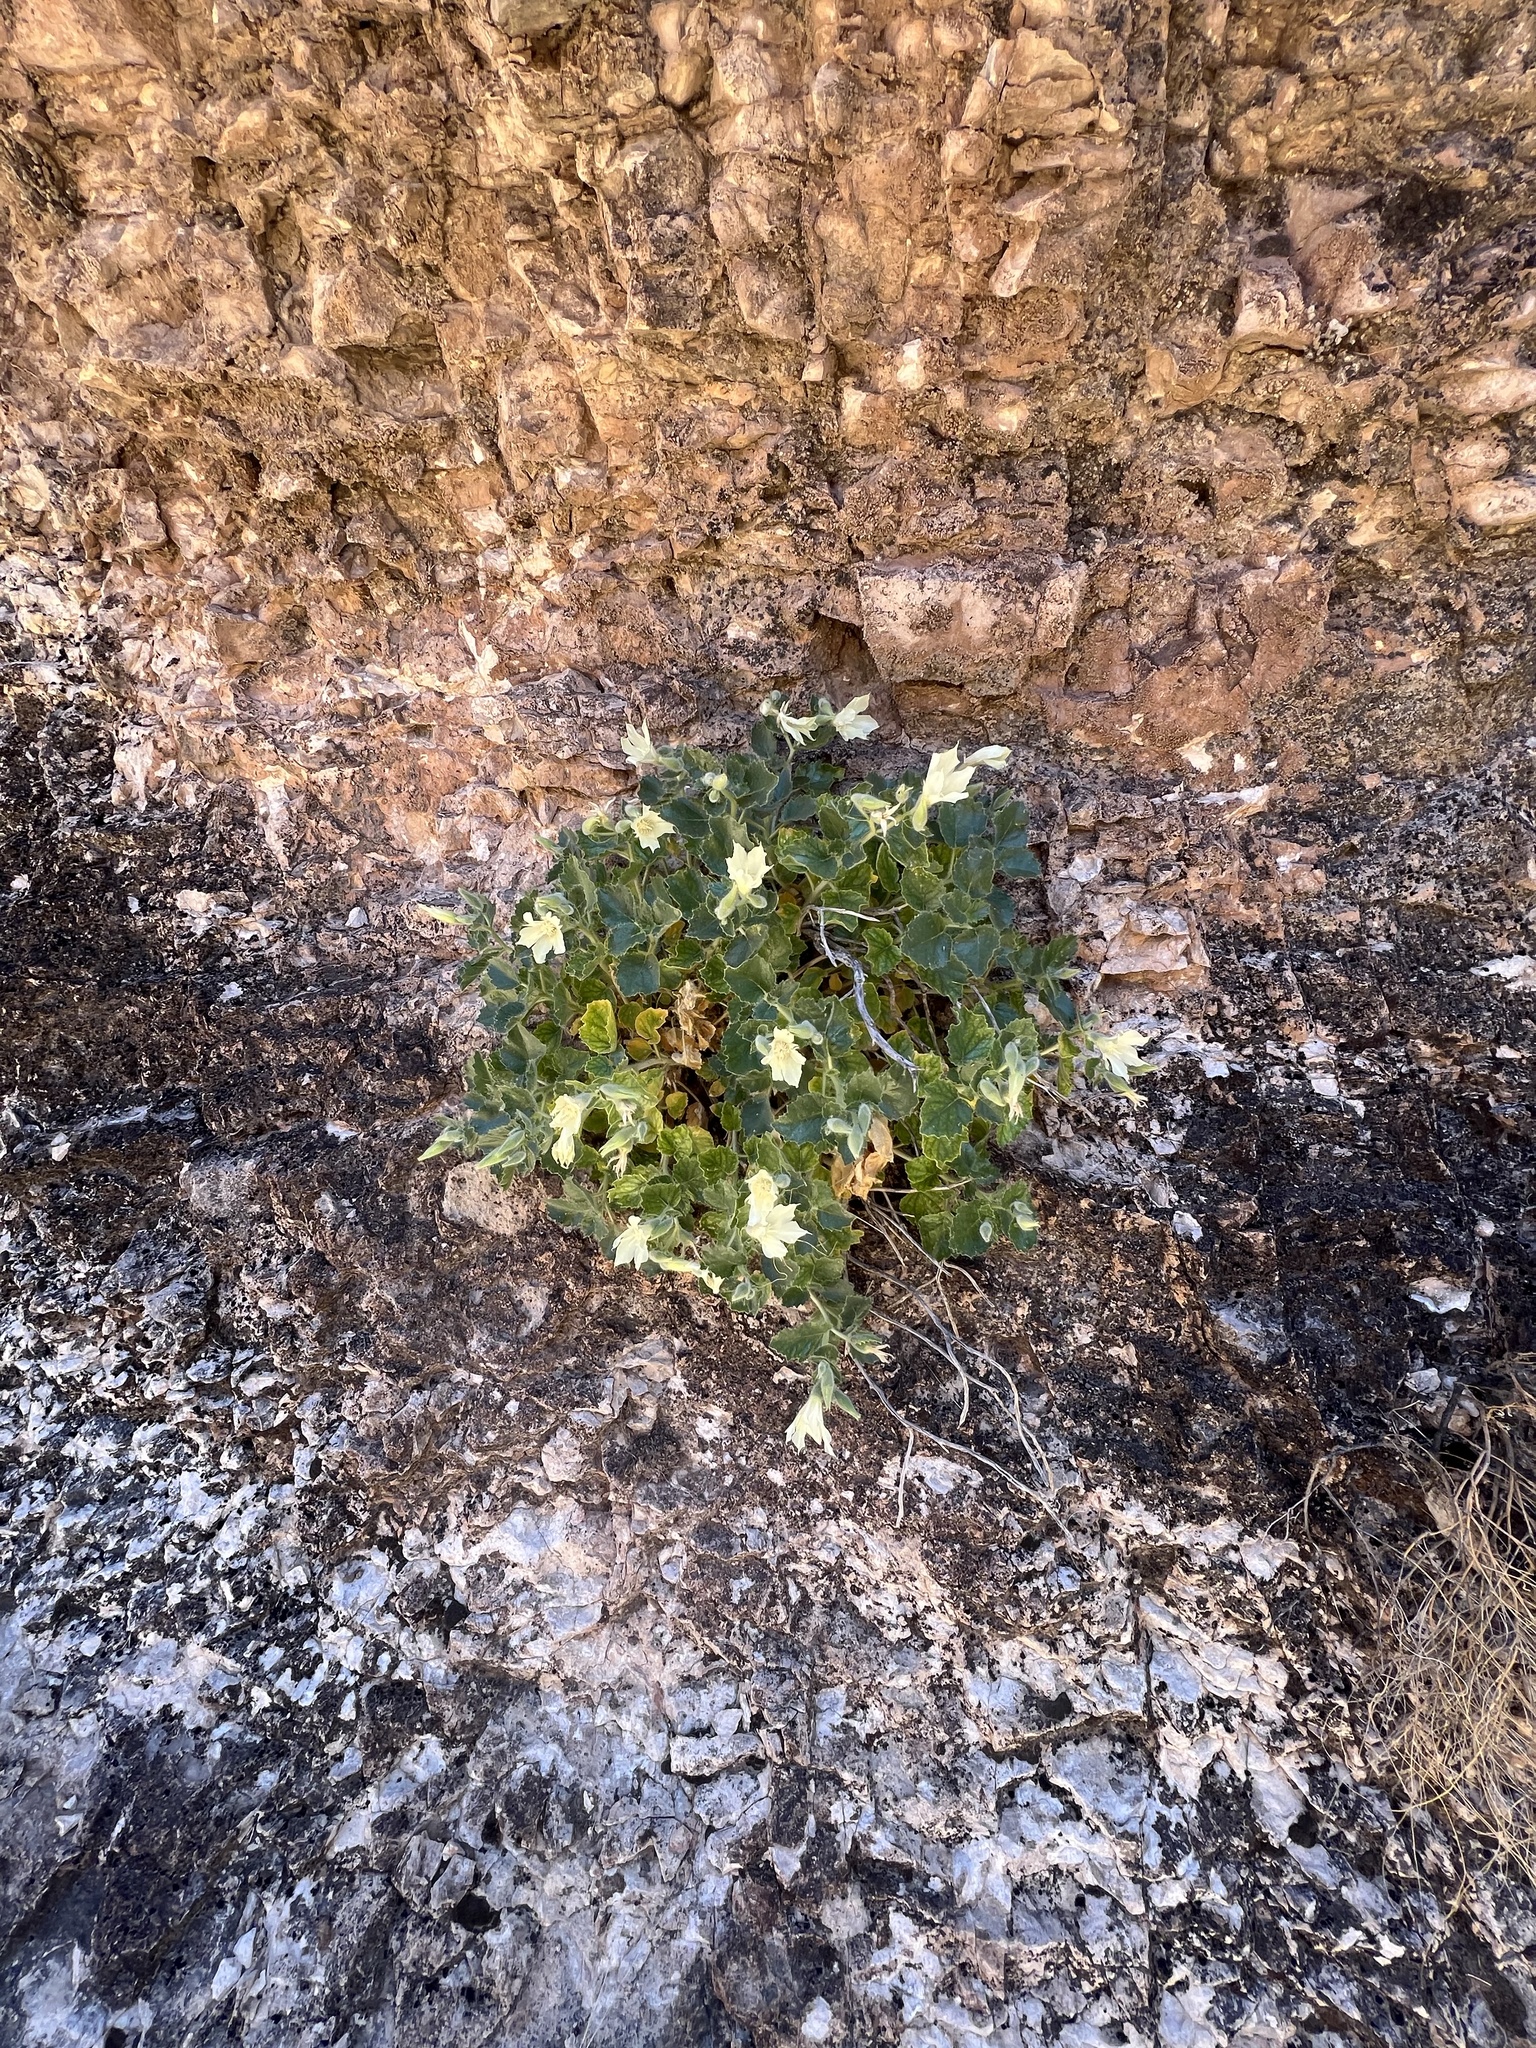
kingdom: Plantae
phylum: Tracheophyta
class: Magnoliopsida
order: Cornales
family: Loasaceae
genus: Eucnide
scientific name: Eucnide urens
